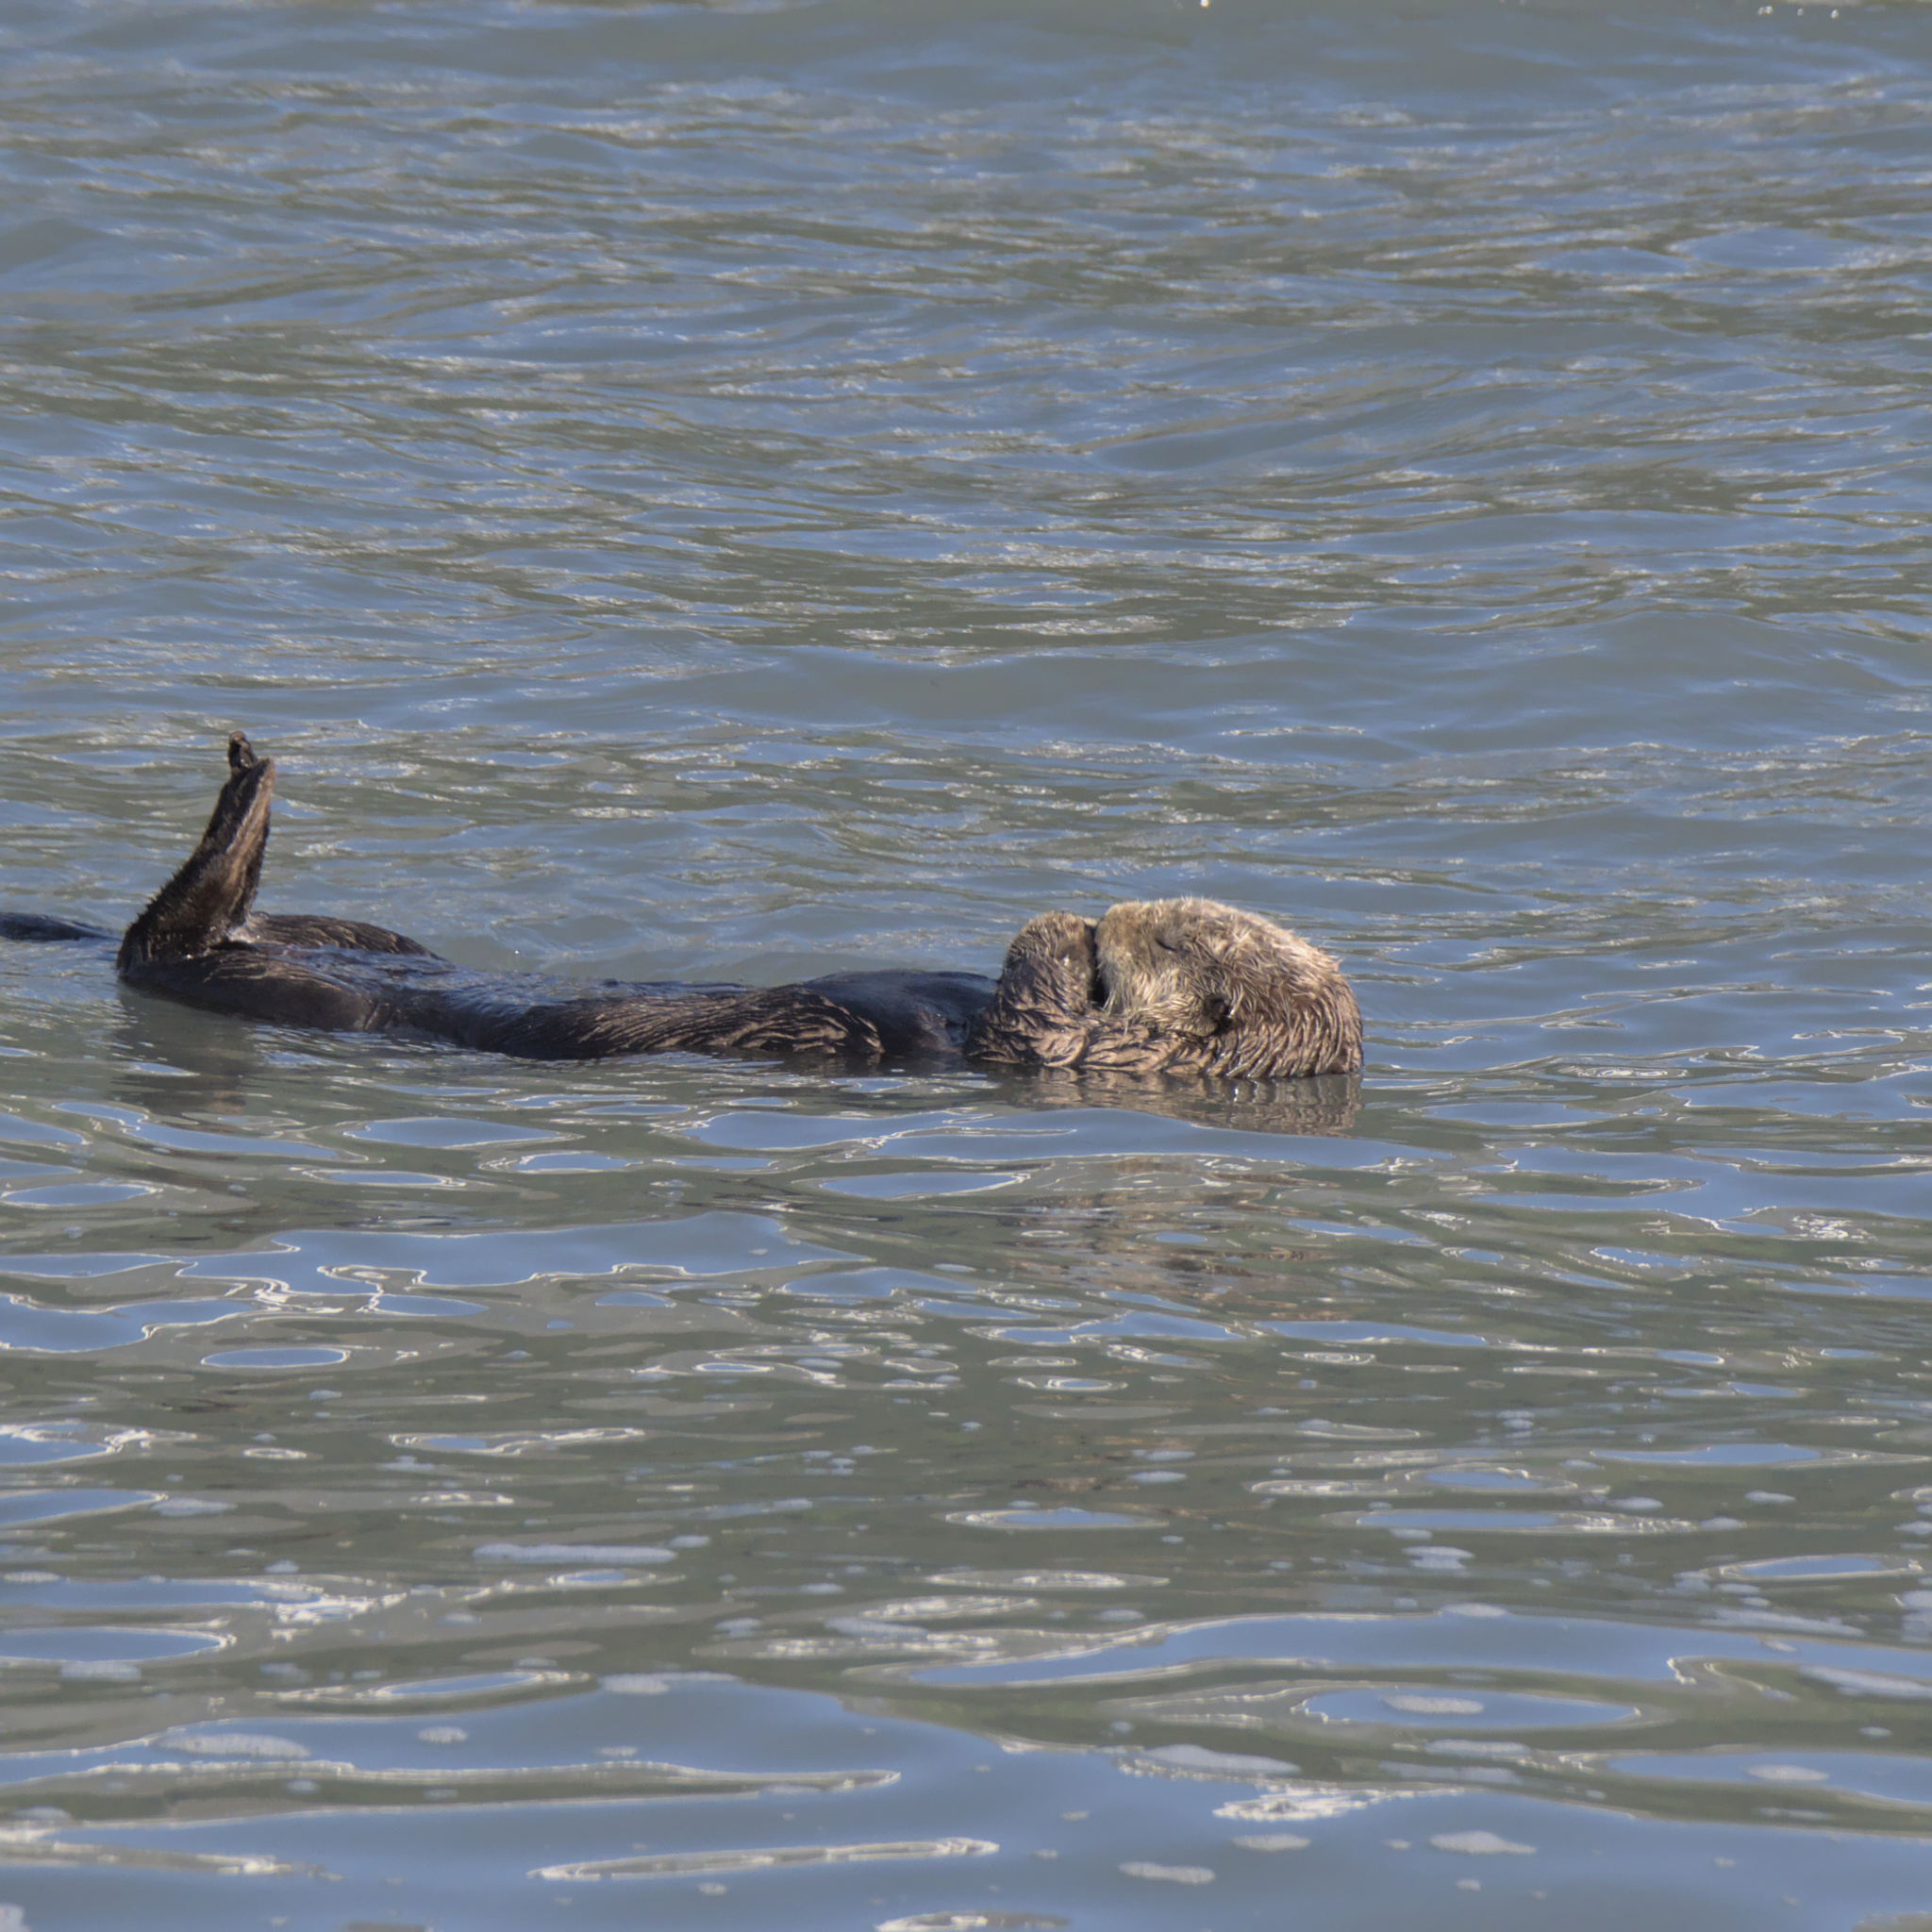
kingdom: Animalia
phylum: Chordata
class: Mammalia
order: Carnivora
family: Mustelidae
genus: Enhydra
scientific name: Enhydra lutris
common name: Sea otter
